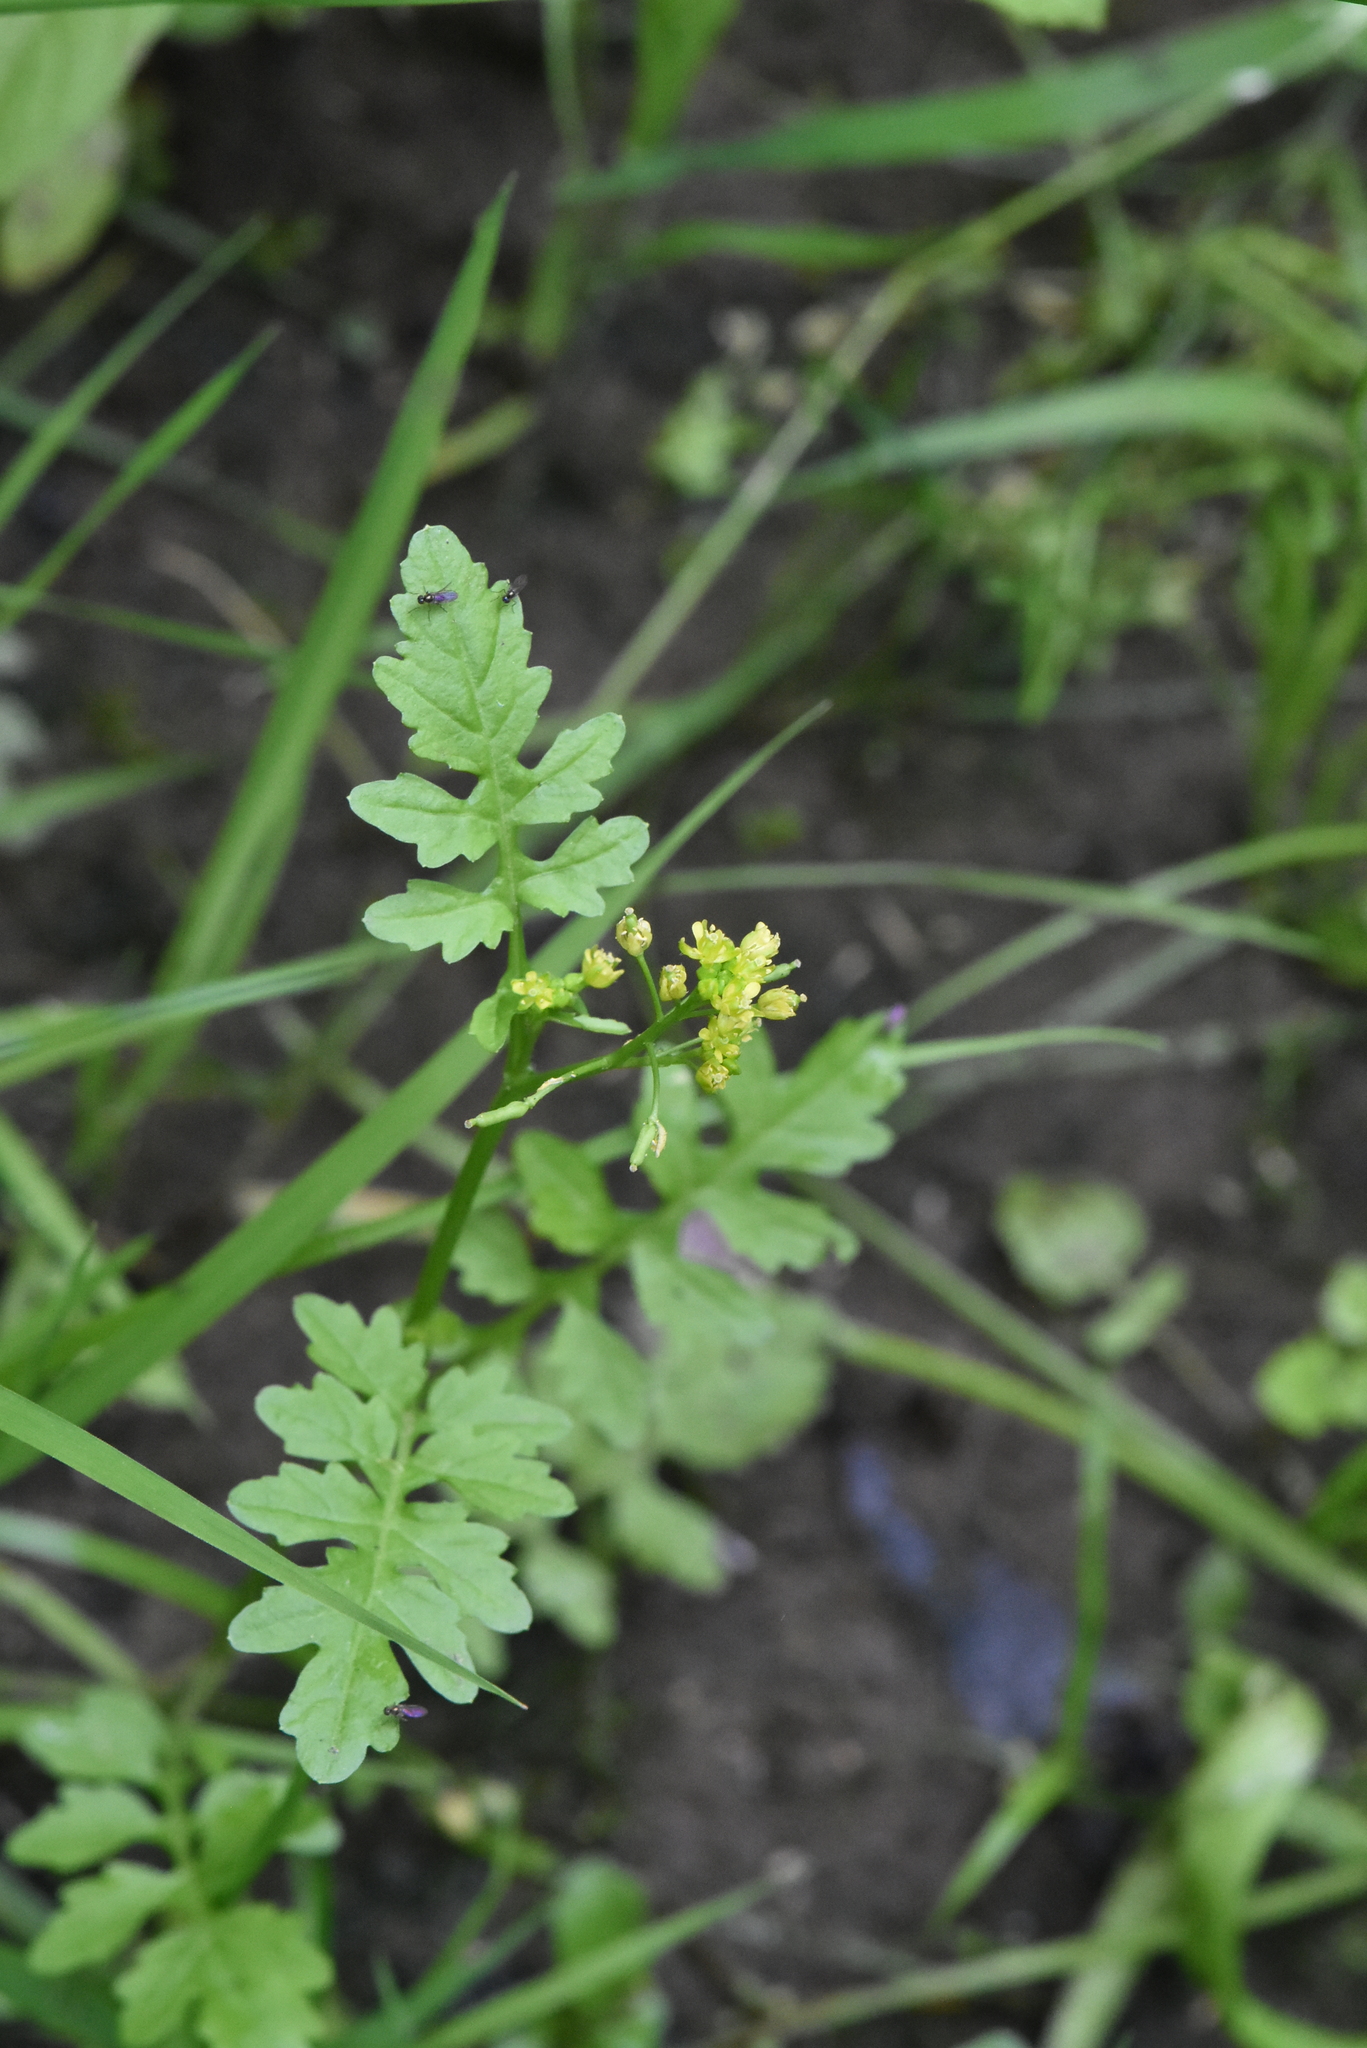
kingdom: Plantae
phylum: Tracheophyta
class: Magnoliopsida
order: Brassicales
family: Brassicaceae
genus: Rorippa
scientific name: Rorippa palustris
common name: Marsh yellow-cress
